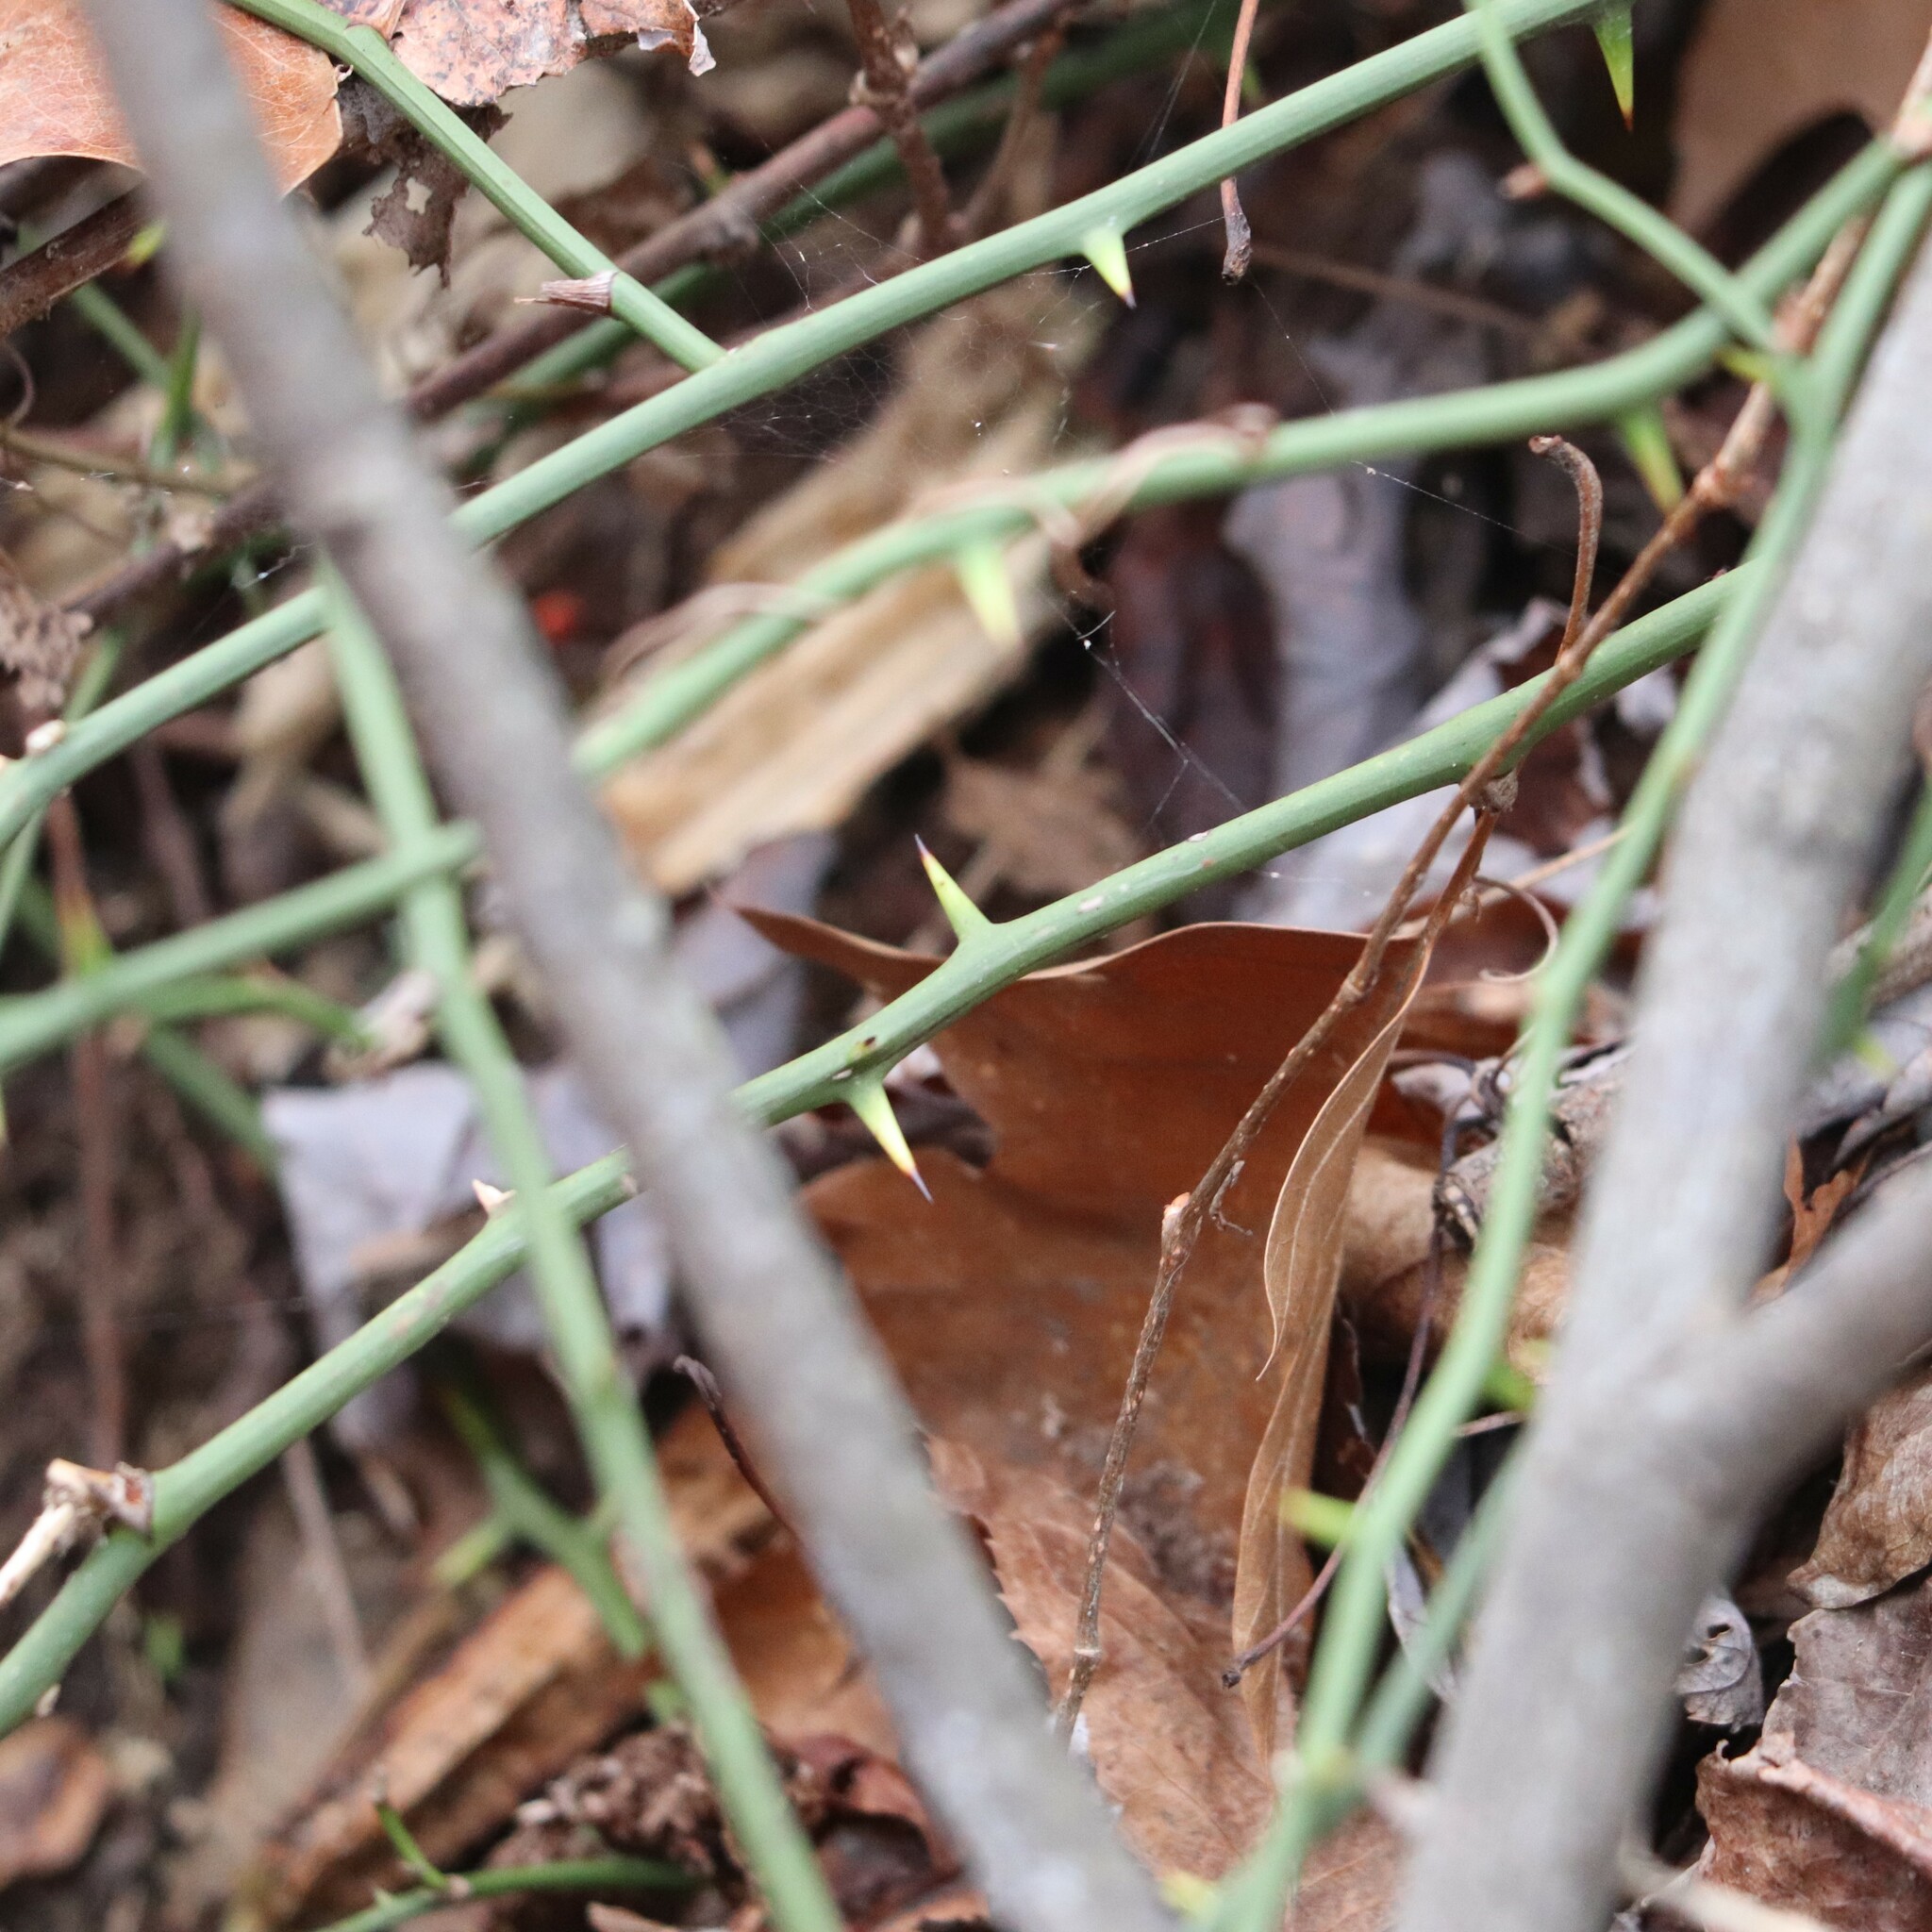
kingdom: Plantae
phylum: Tracheophyta
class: Liliopsida
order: Liliales
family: Smilacaceae
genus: Smilax
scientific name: Smilax rotundifolia
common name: Bullbriar
